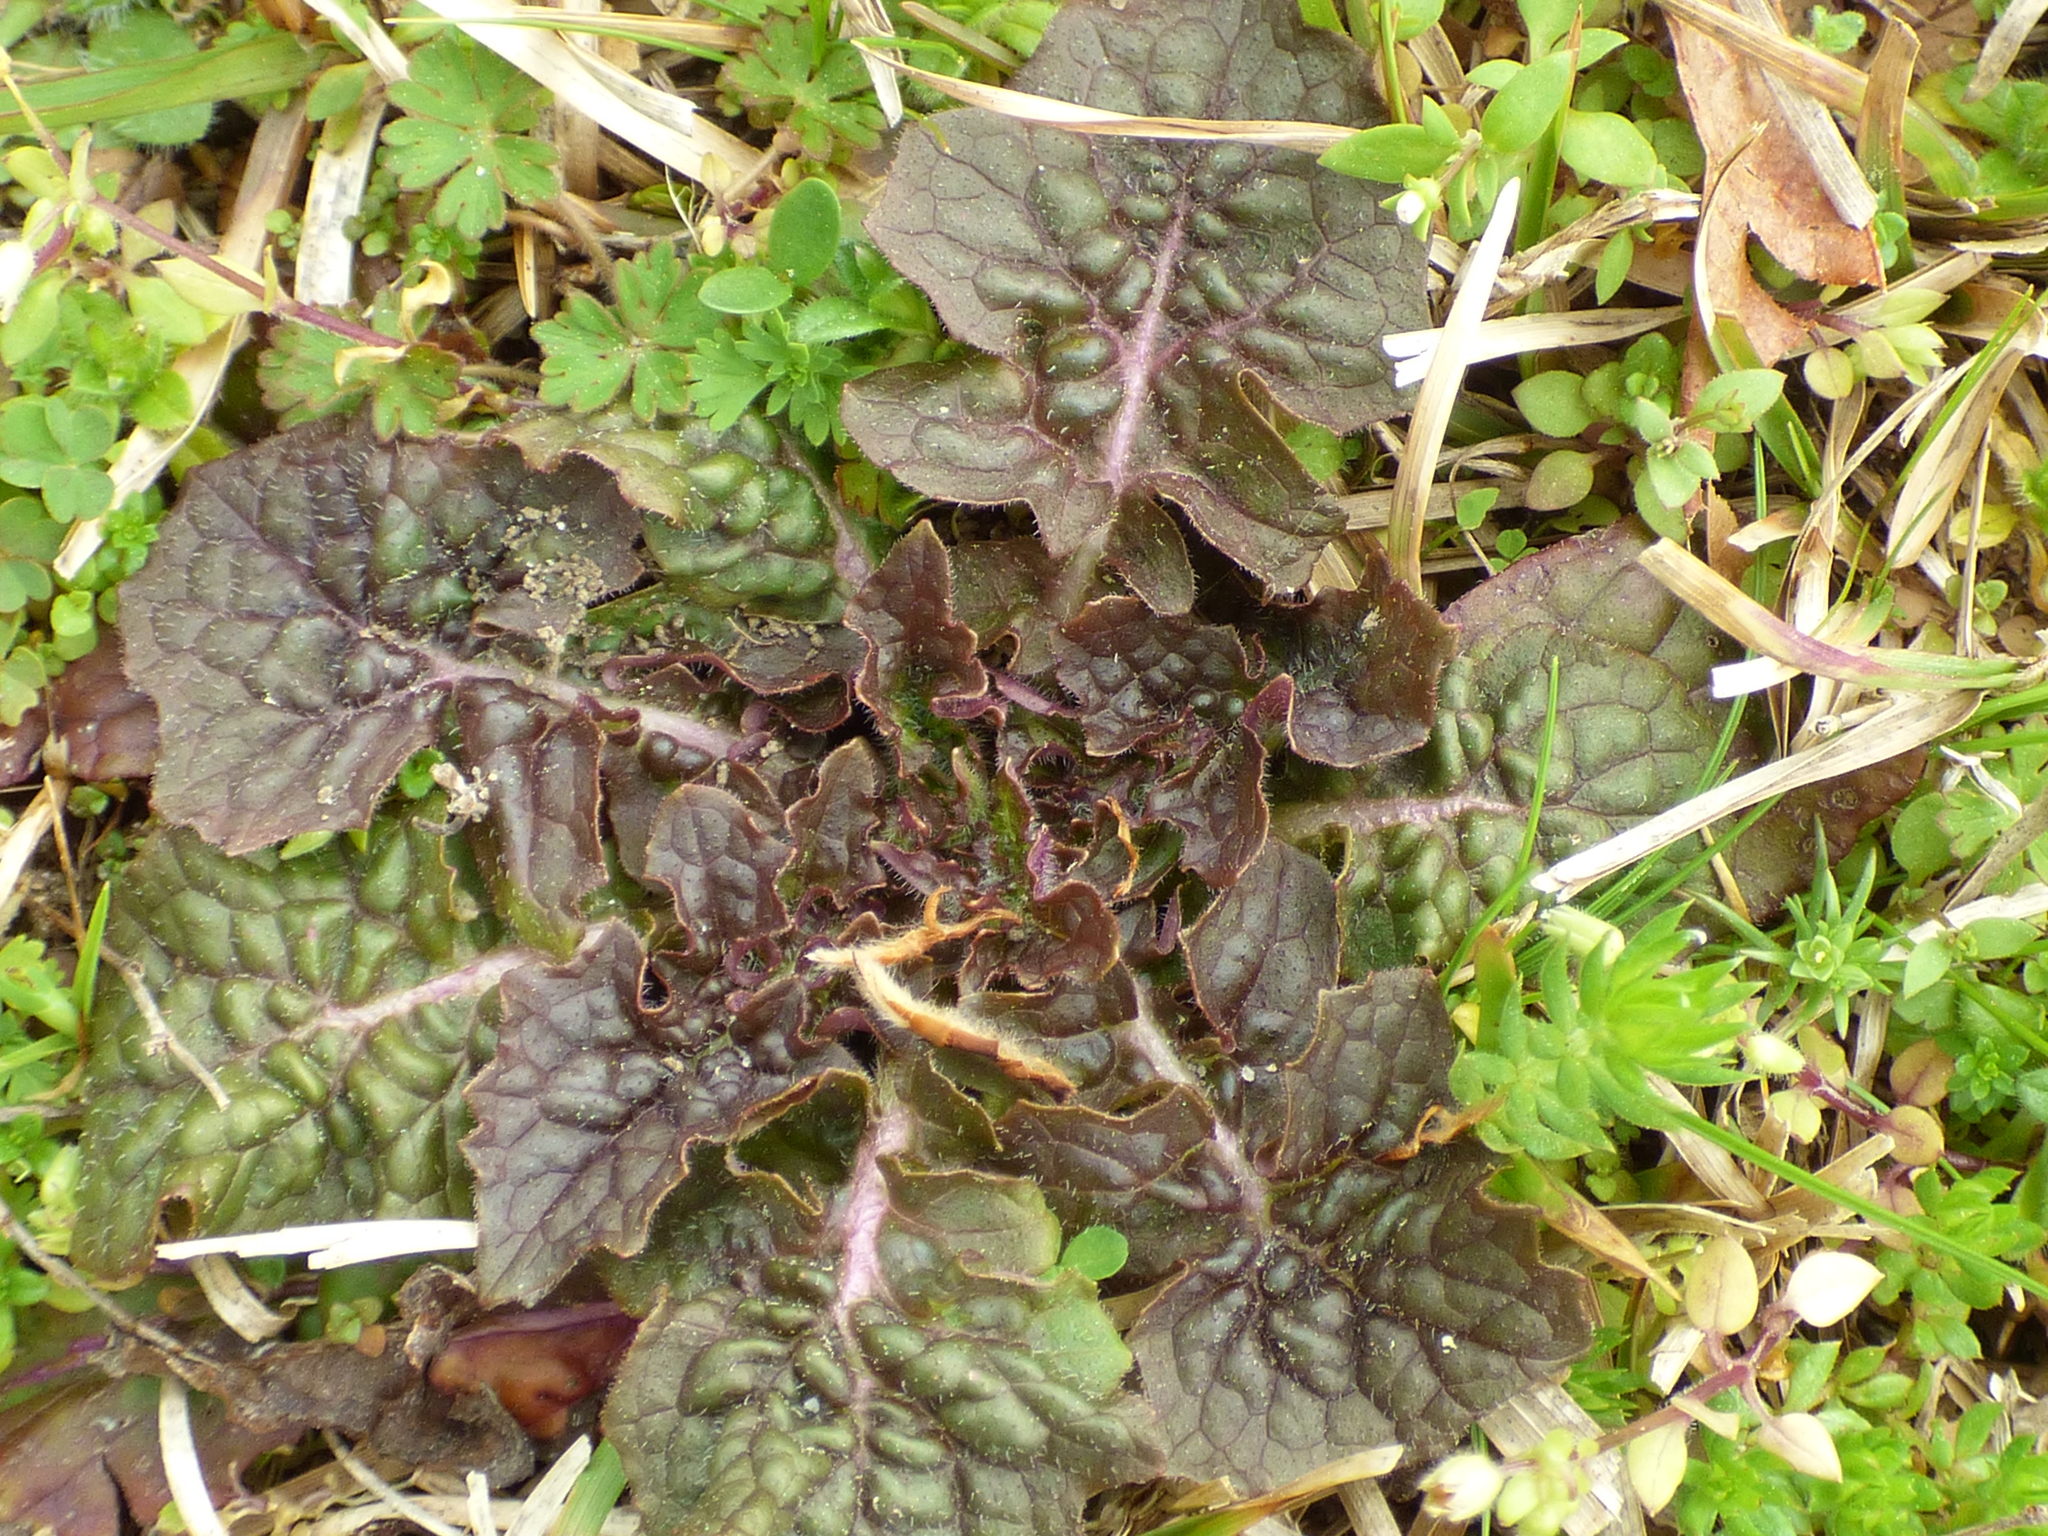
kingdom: Plantae
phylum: Tracheophyta
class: Magnoliopsida
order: Lamiales
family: Lamiaceae
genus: Salvia
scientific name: Salvia lyrata
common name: Cancerweed
